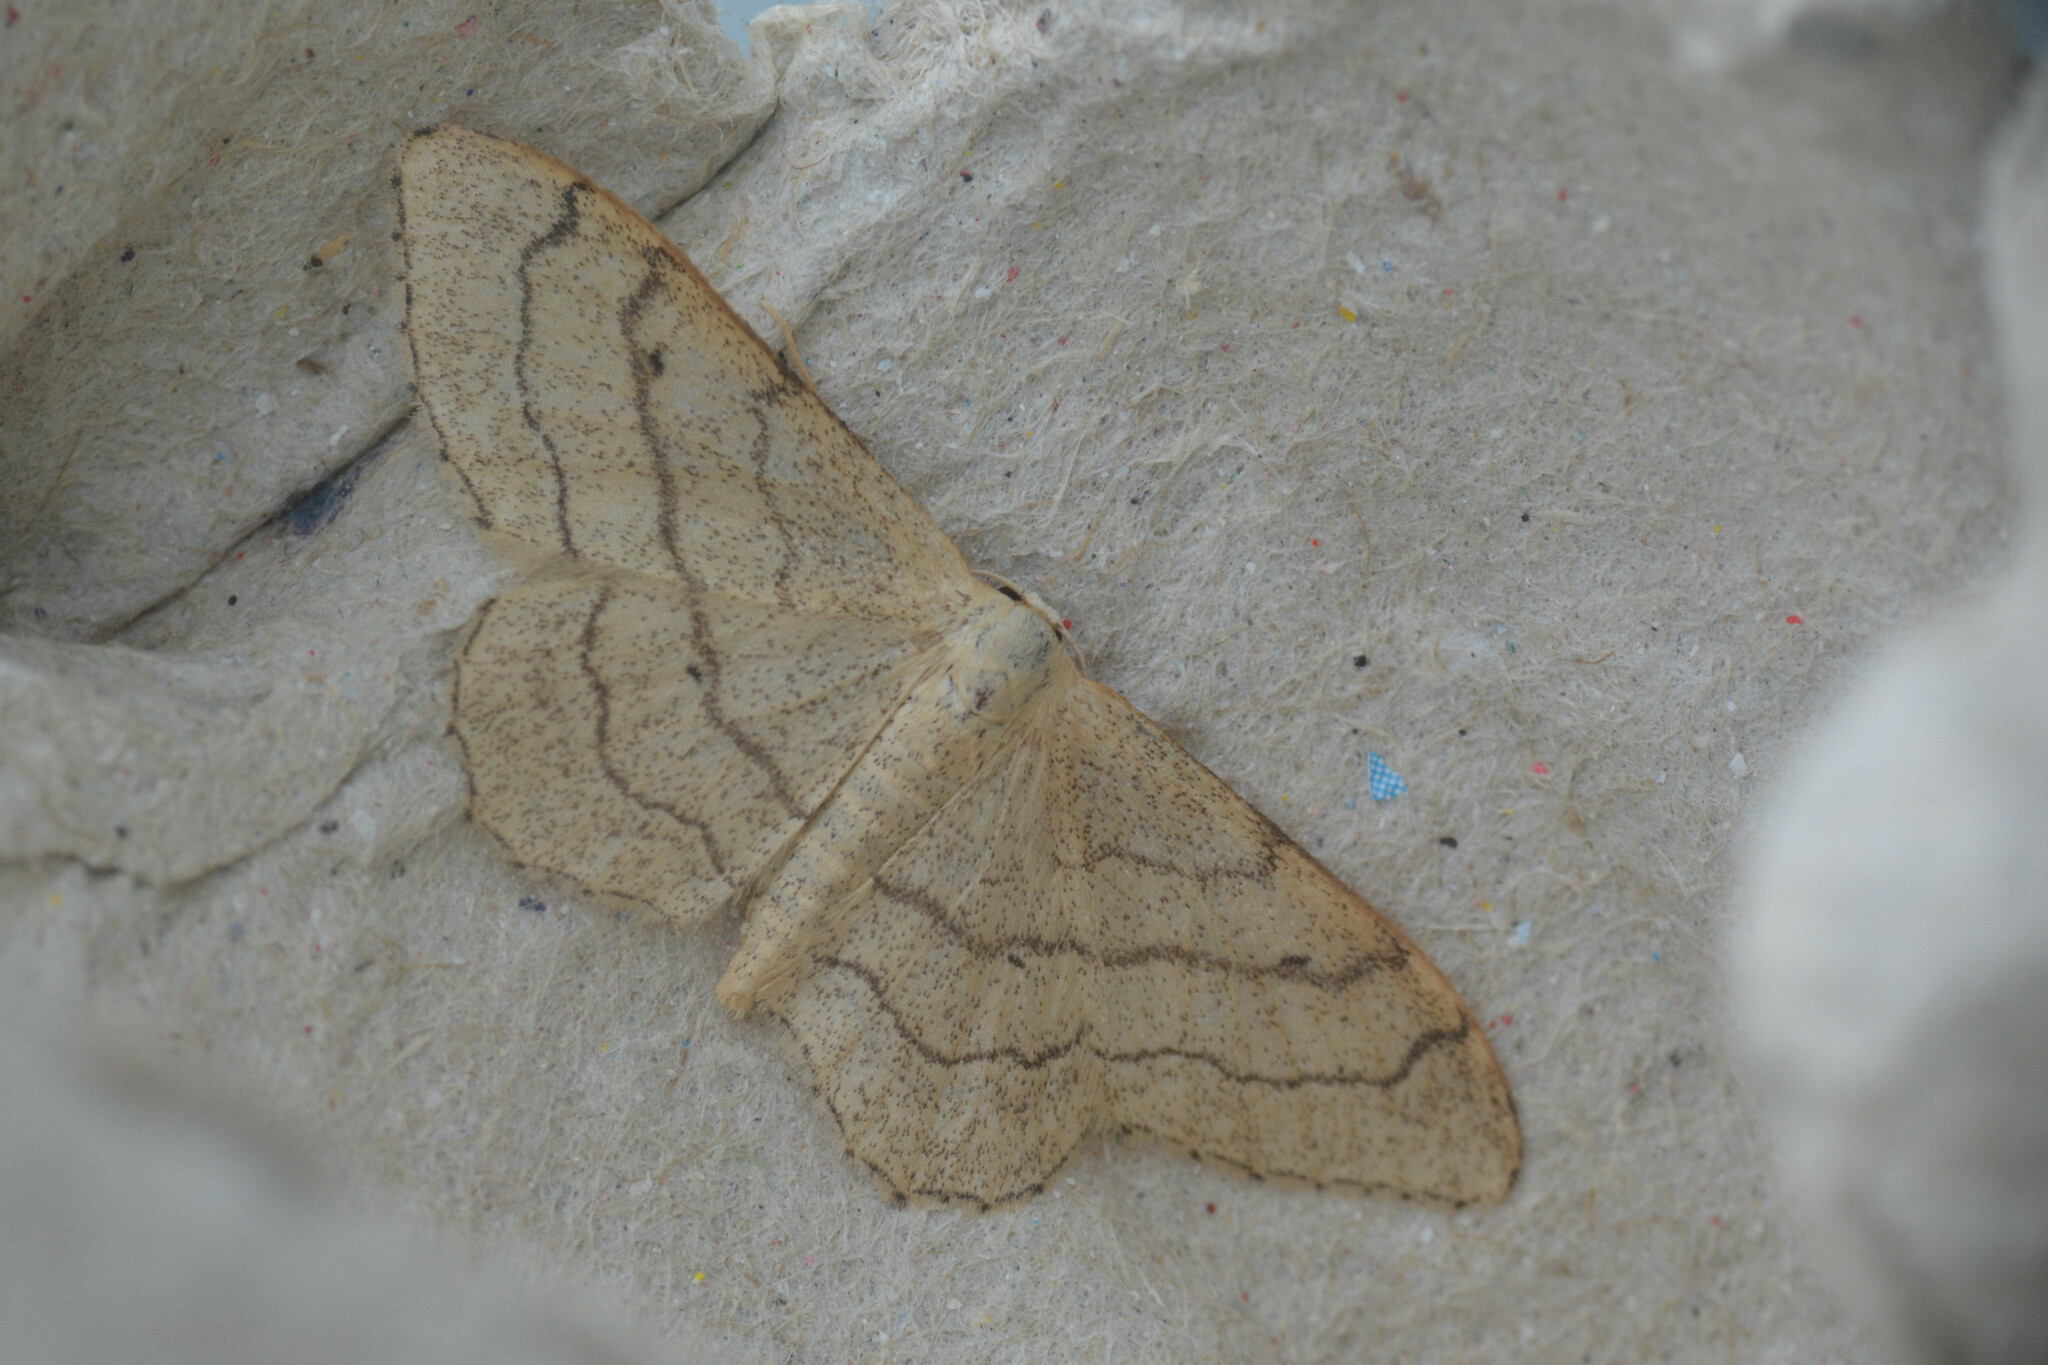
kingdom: Animalia
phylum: Arthropoda
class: Insecta
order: Lepidoptera
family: Geometridae
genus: Idaea
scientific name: Idaea aversata
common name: Riband wave
